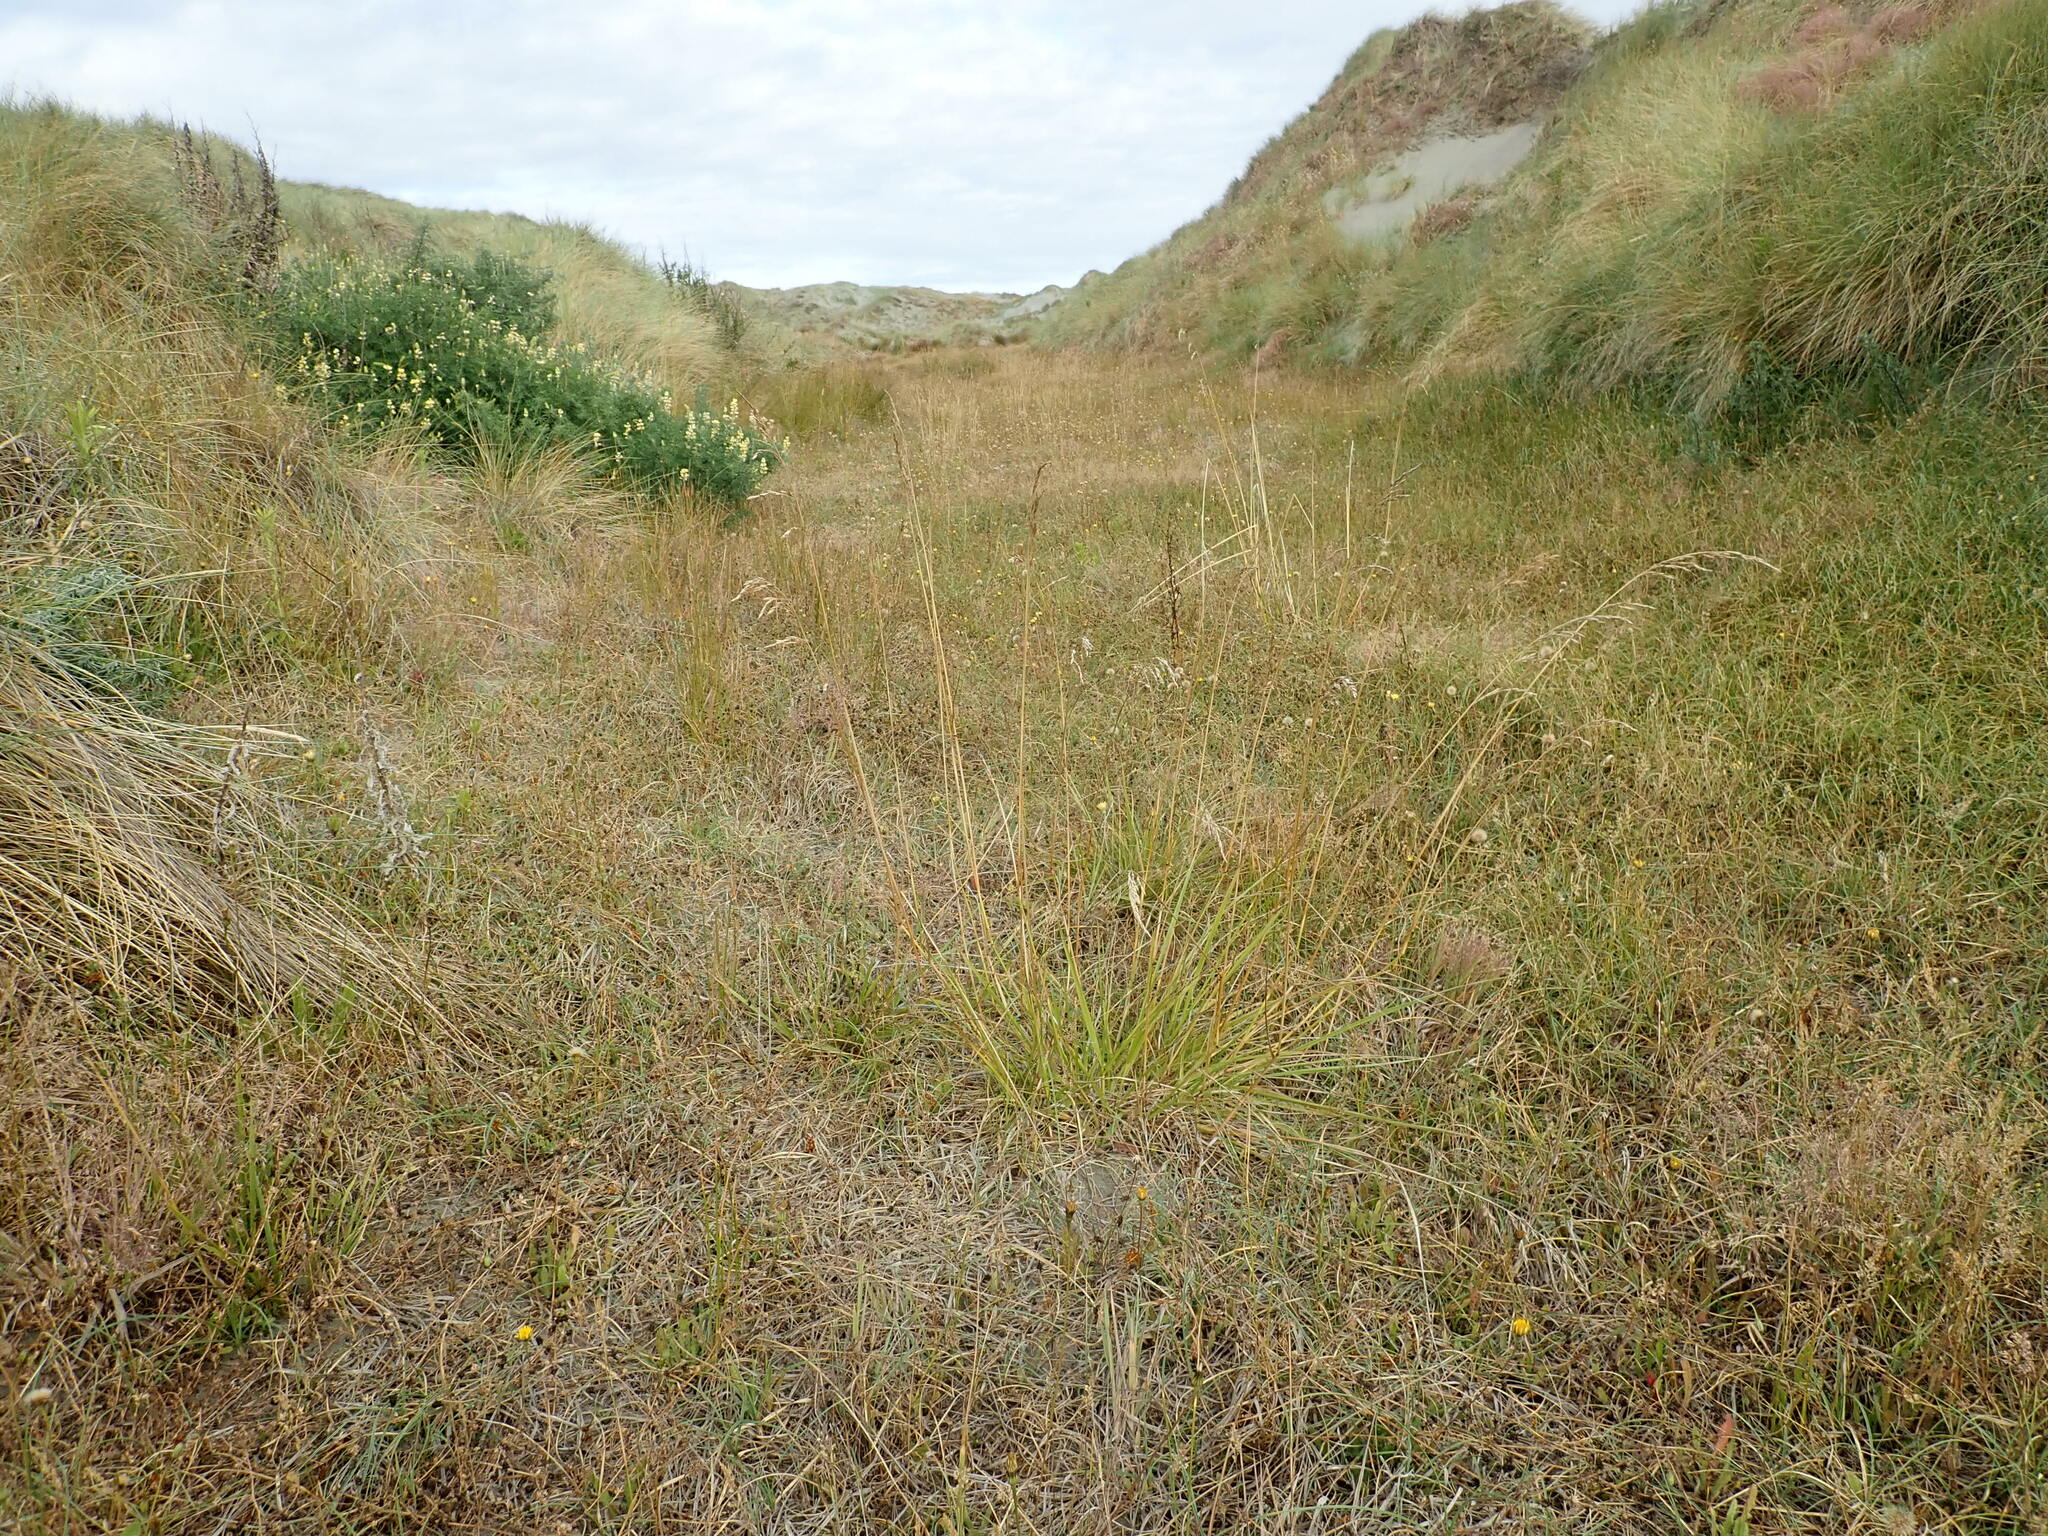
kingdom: Plantae
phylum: Tracheophyta
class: Liliopsida
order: Poales
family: Poaceae
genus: Lolium
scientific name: Lolium arundinaceum
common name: Reed fescue
